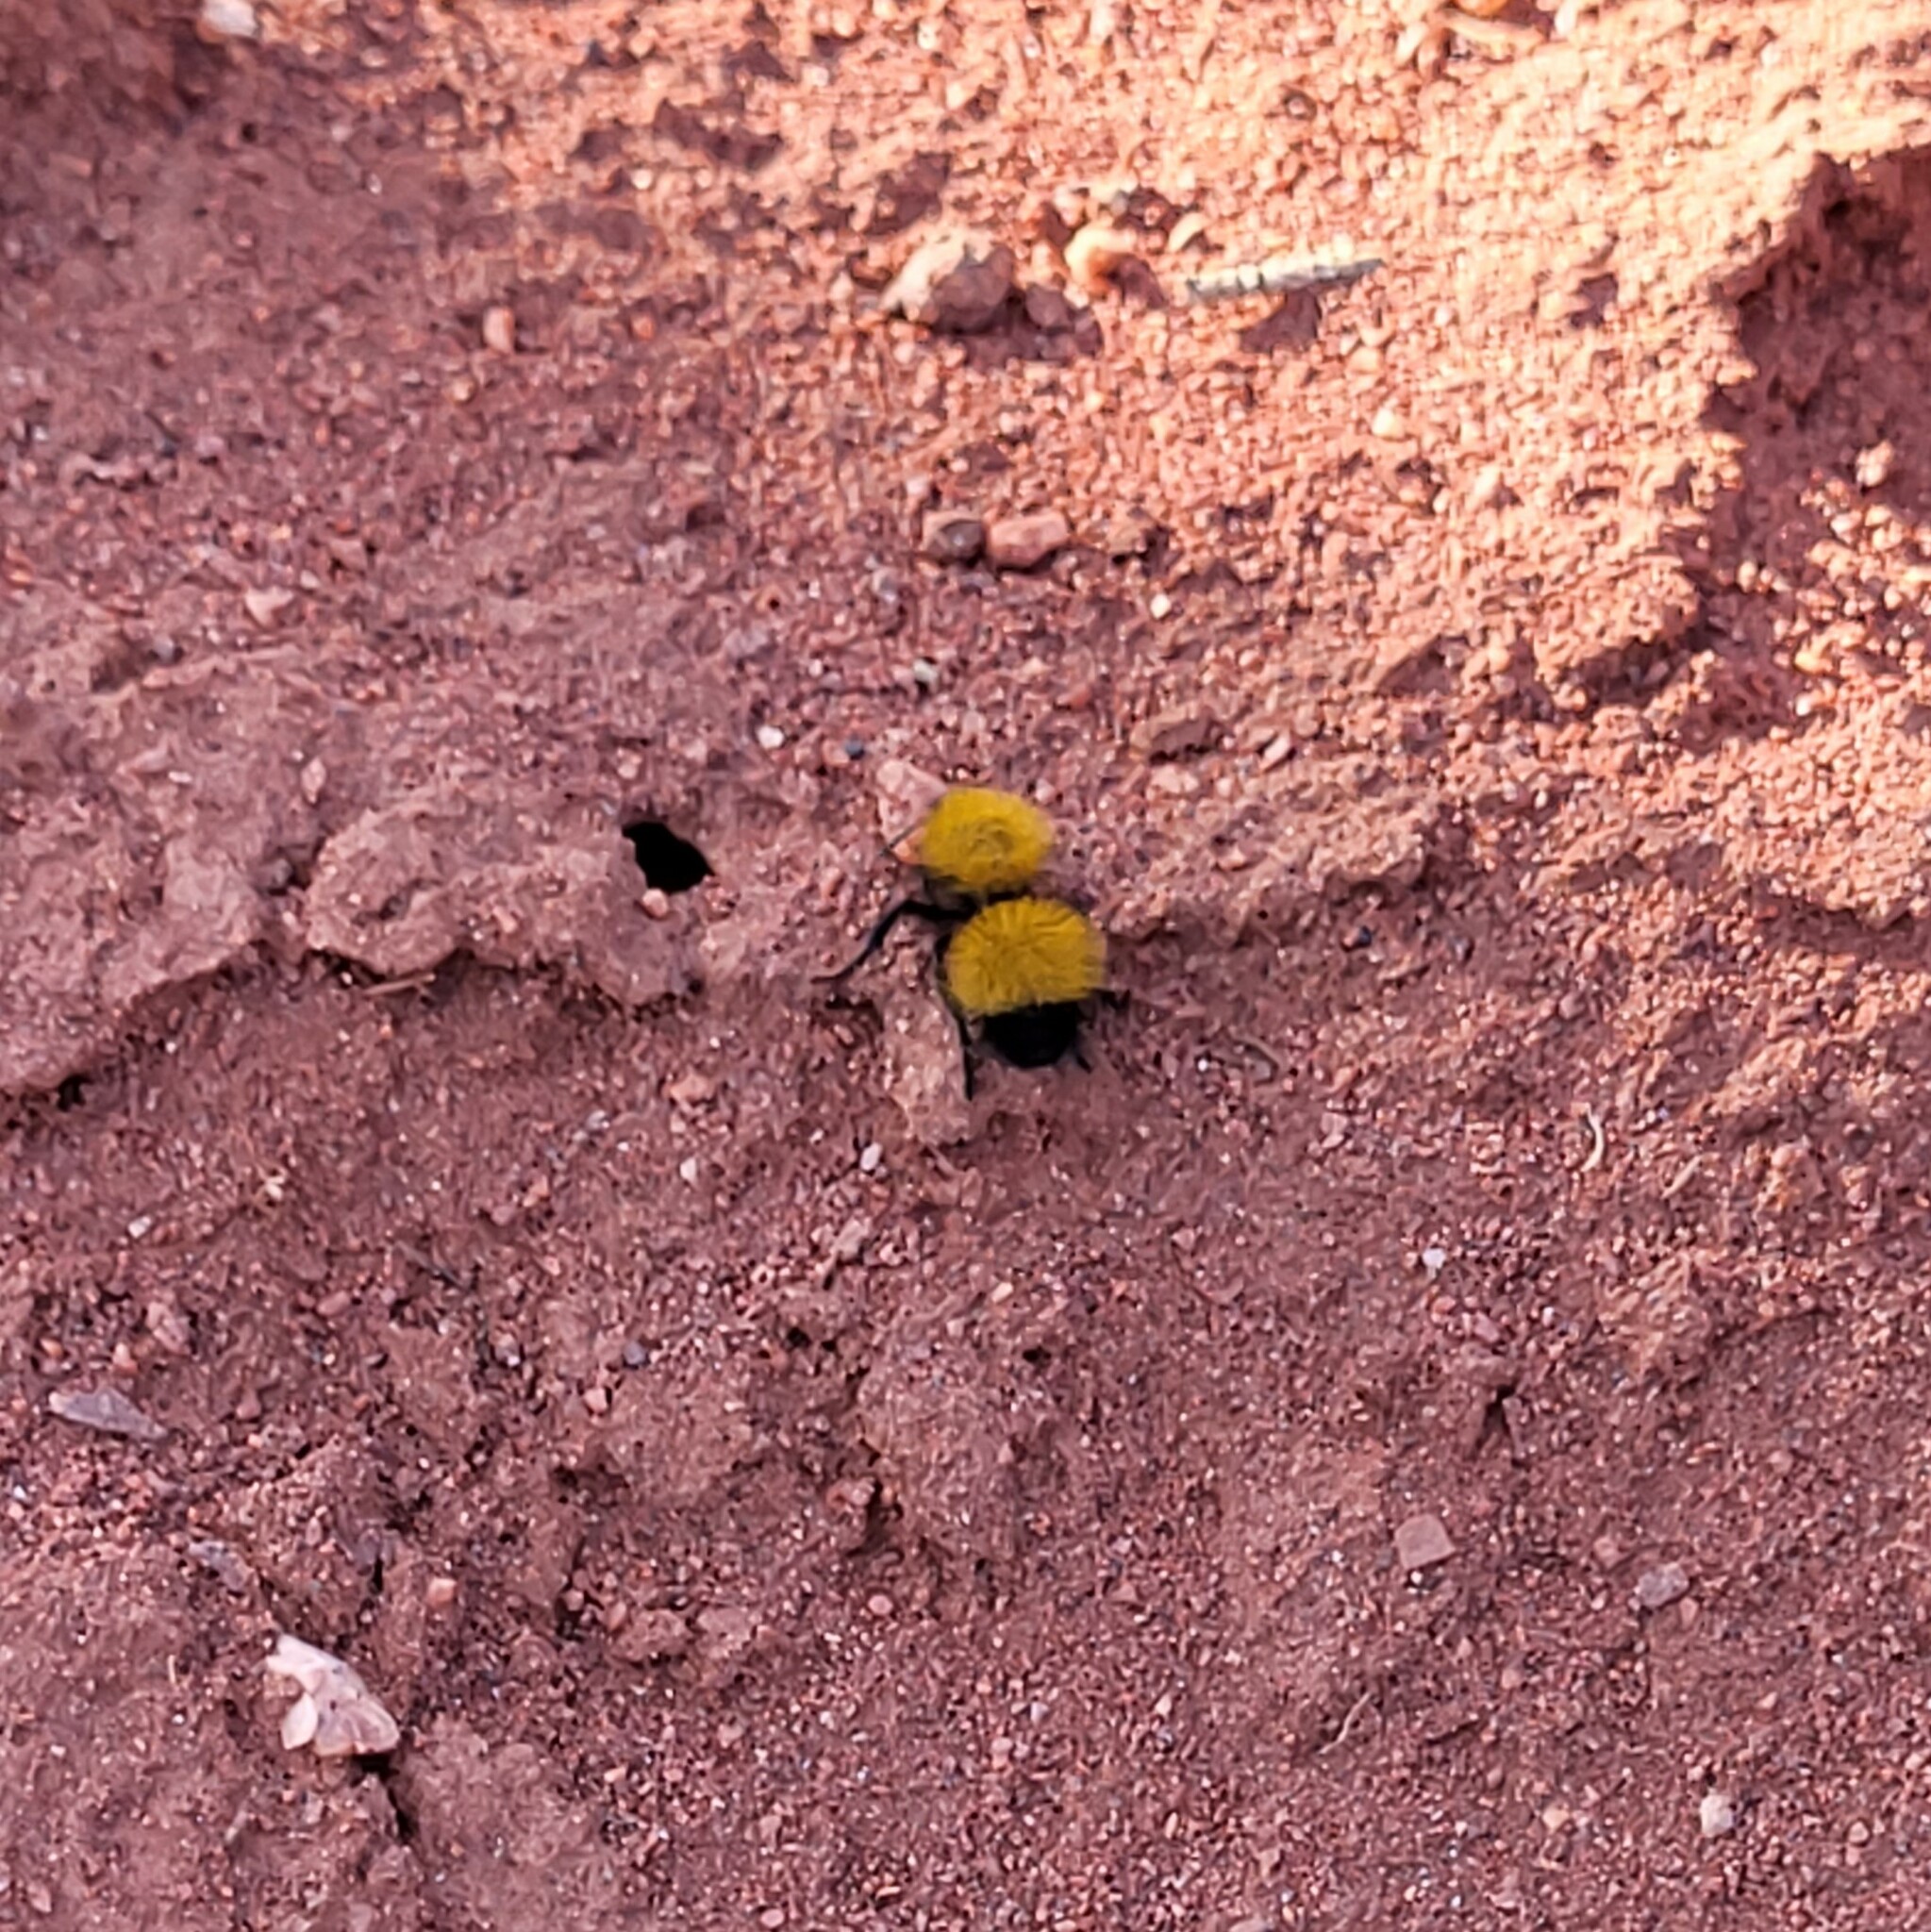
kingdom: Animalia
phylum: Arthropoda
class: Insecta
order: Hymenoptera
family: Mutillidae
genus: Dasymutilla
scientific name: Dasymutilla
